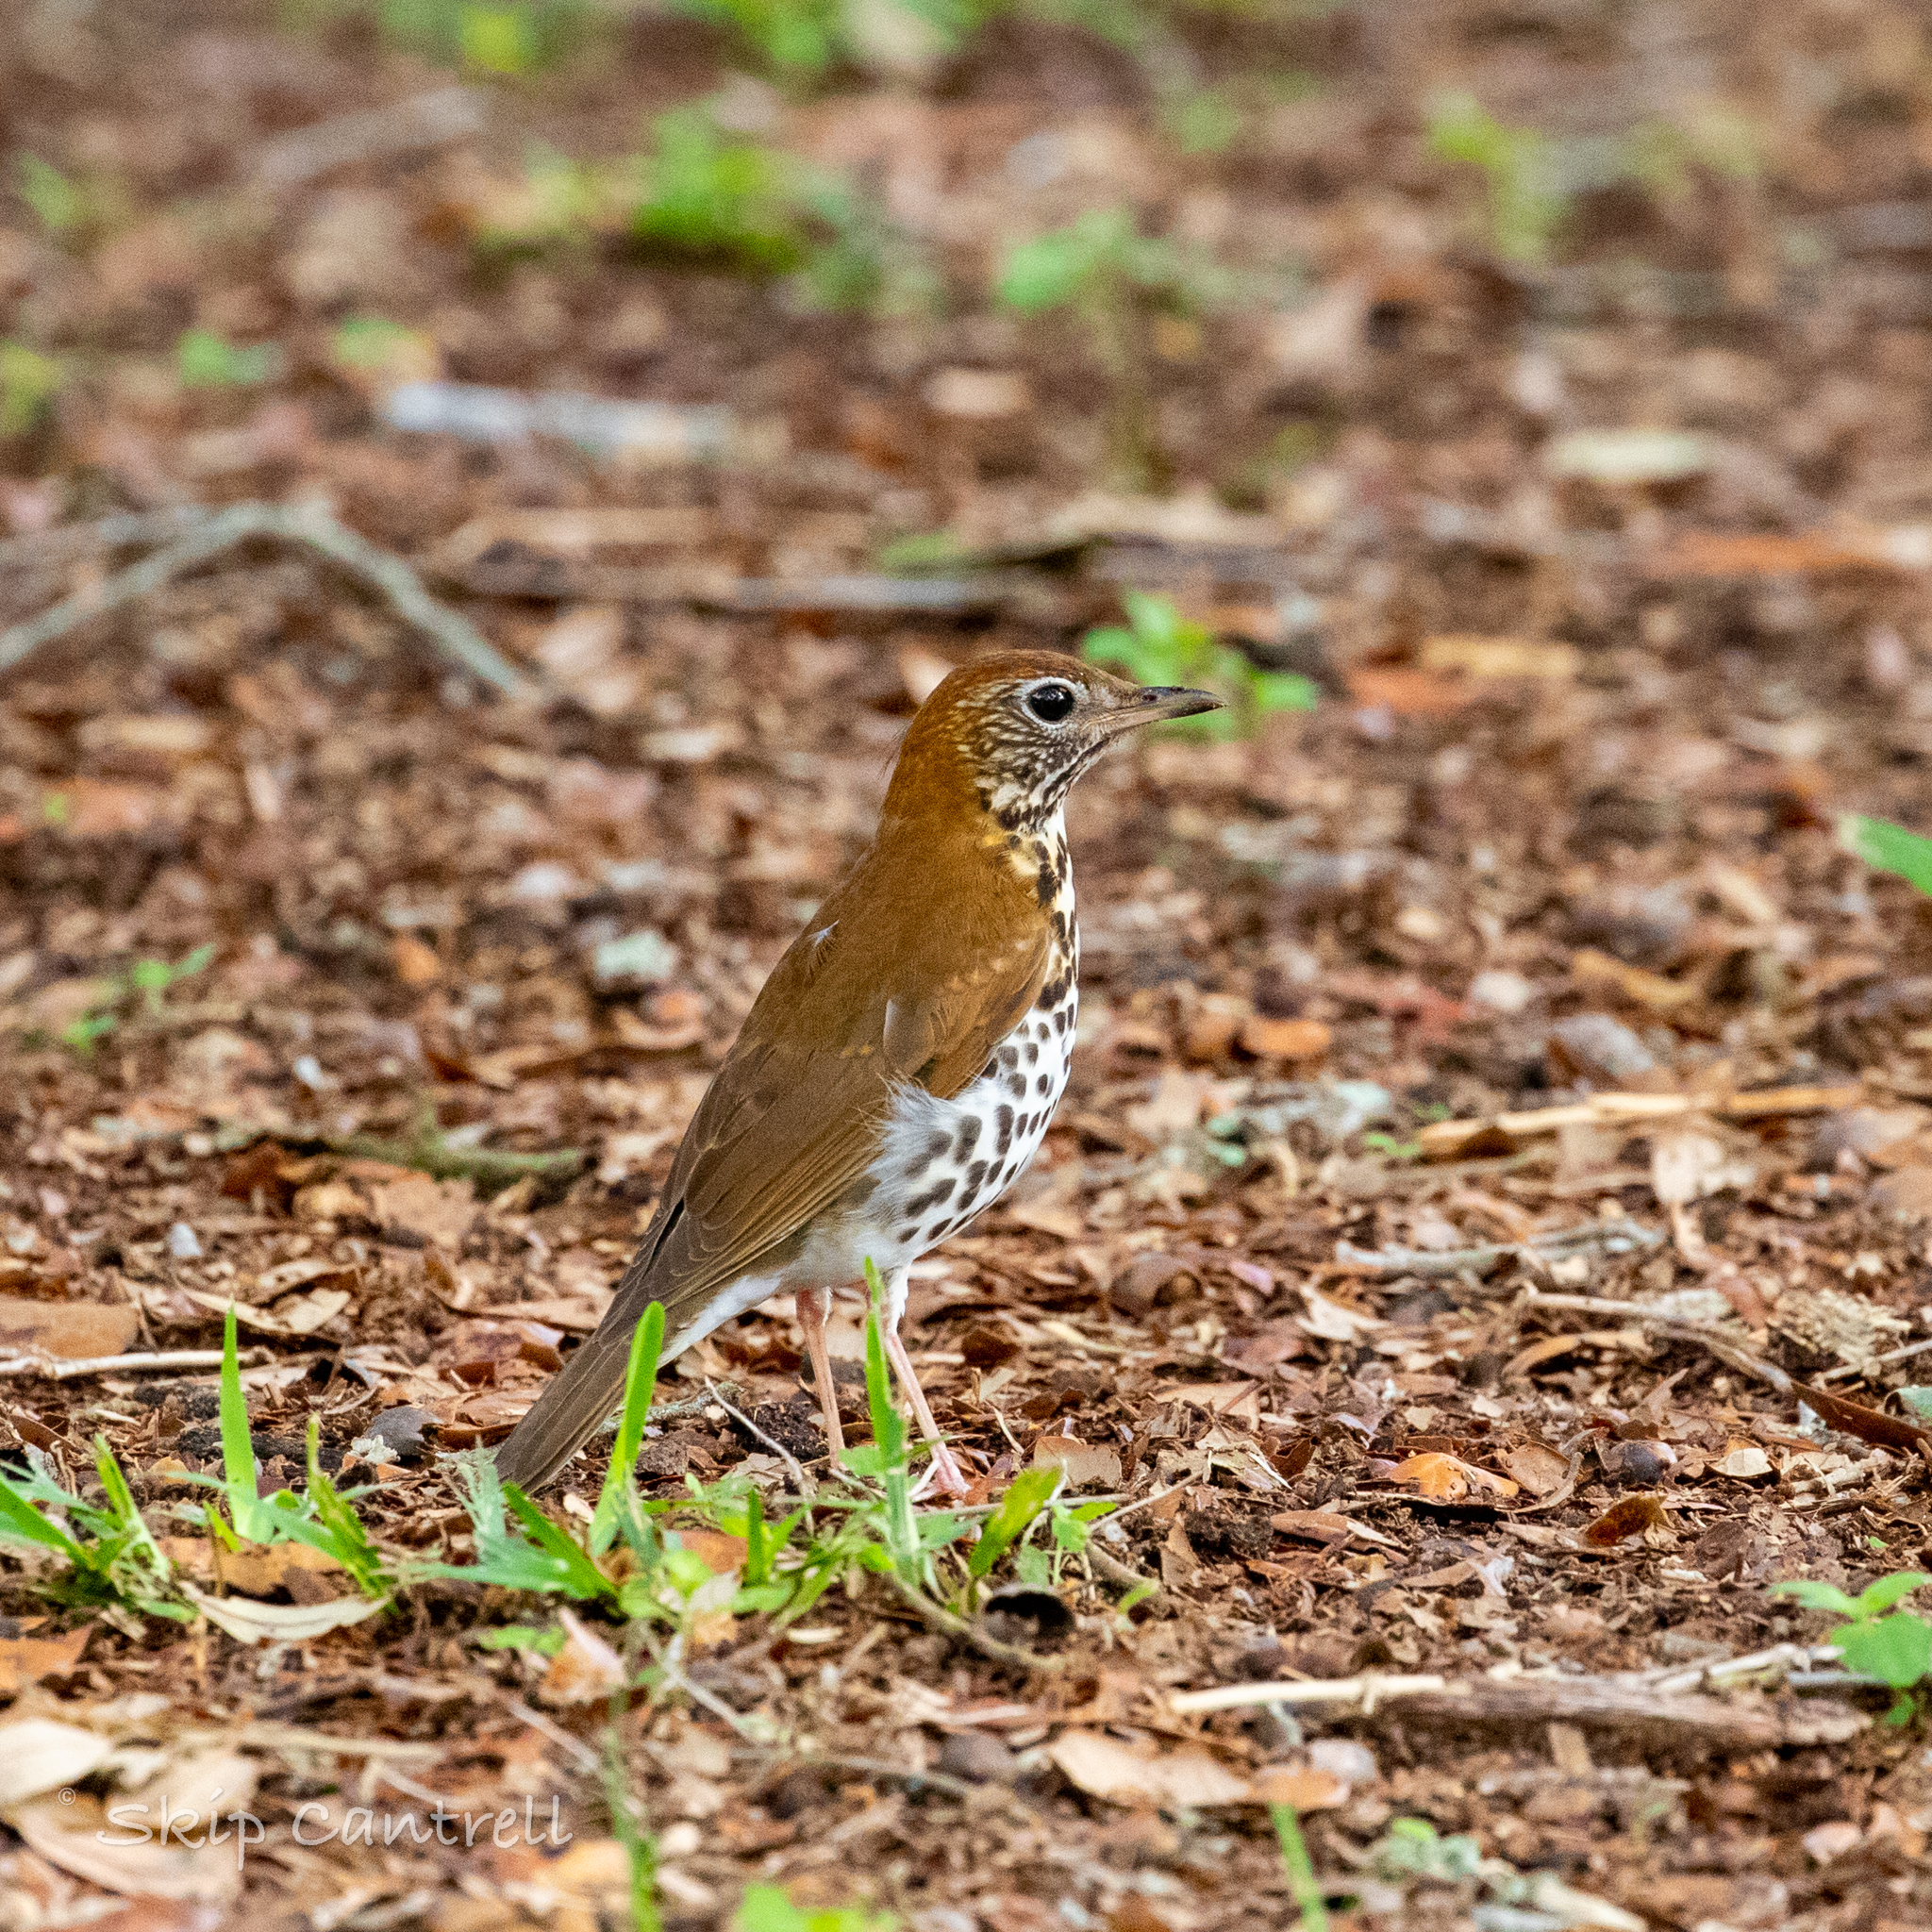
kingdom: Animalia
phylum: Chordata
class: Aves
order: Passeriformes
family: Turdidae
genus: Hylocichla
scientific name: Hylocichla mustelina
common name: Wood thrush
